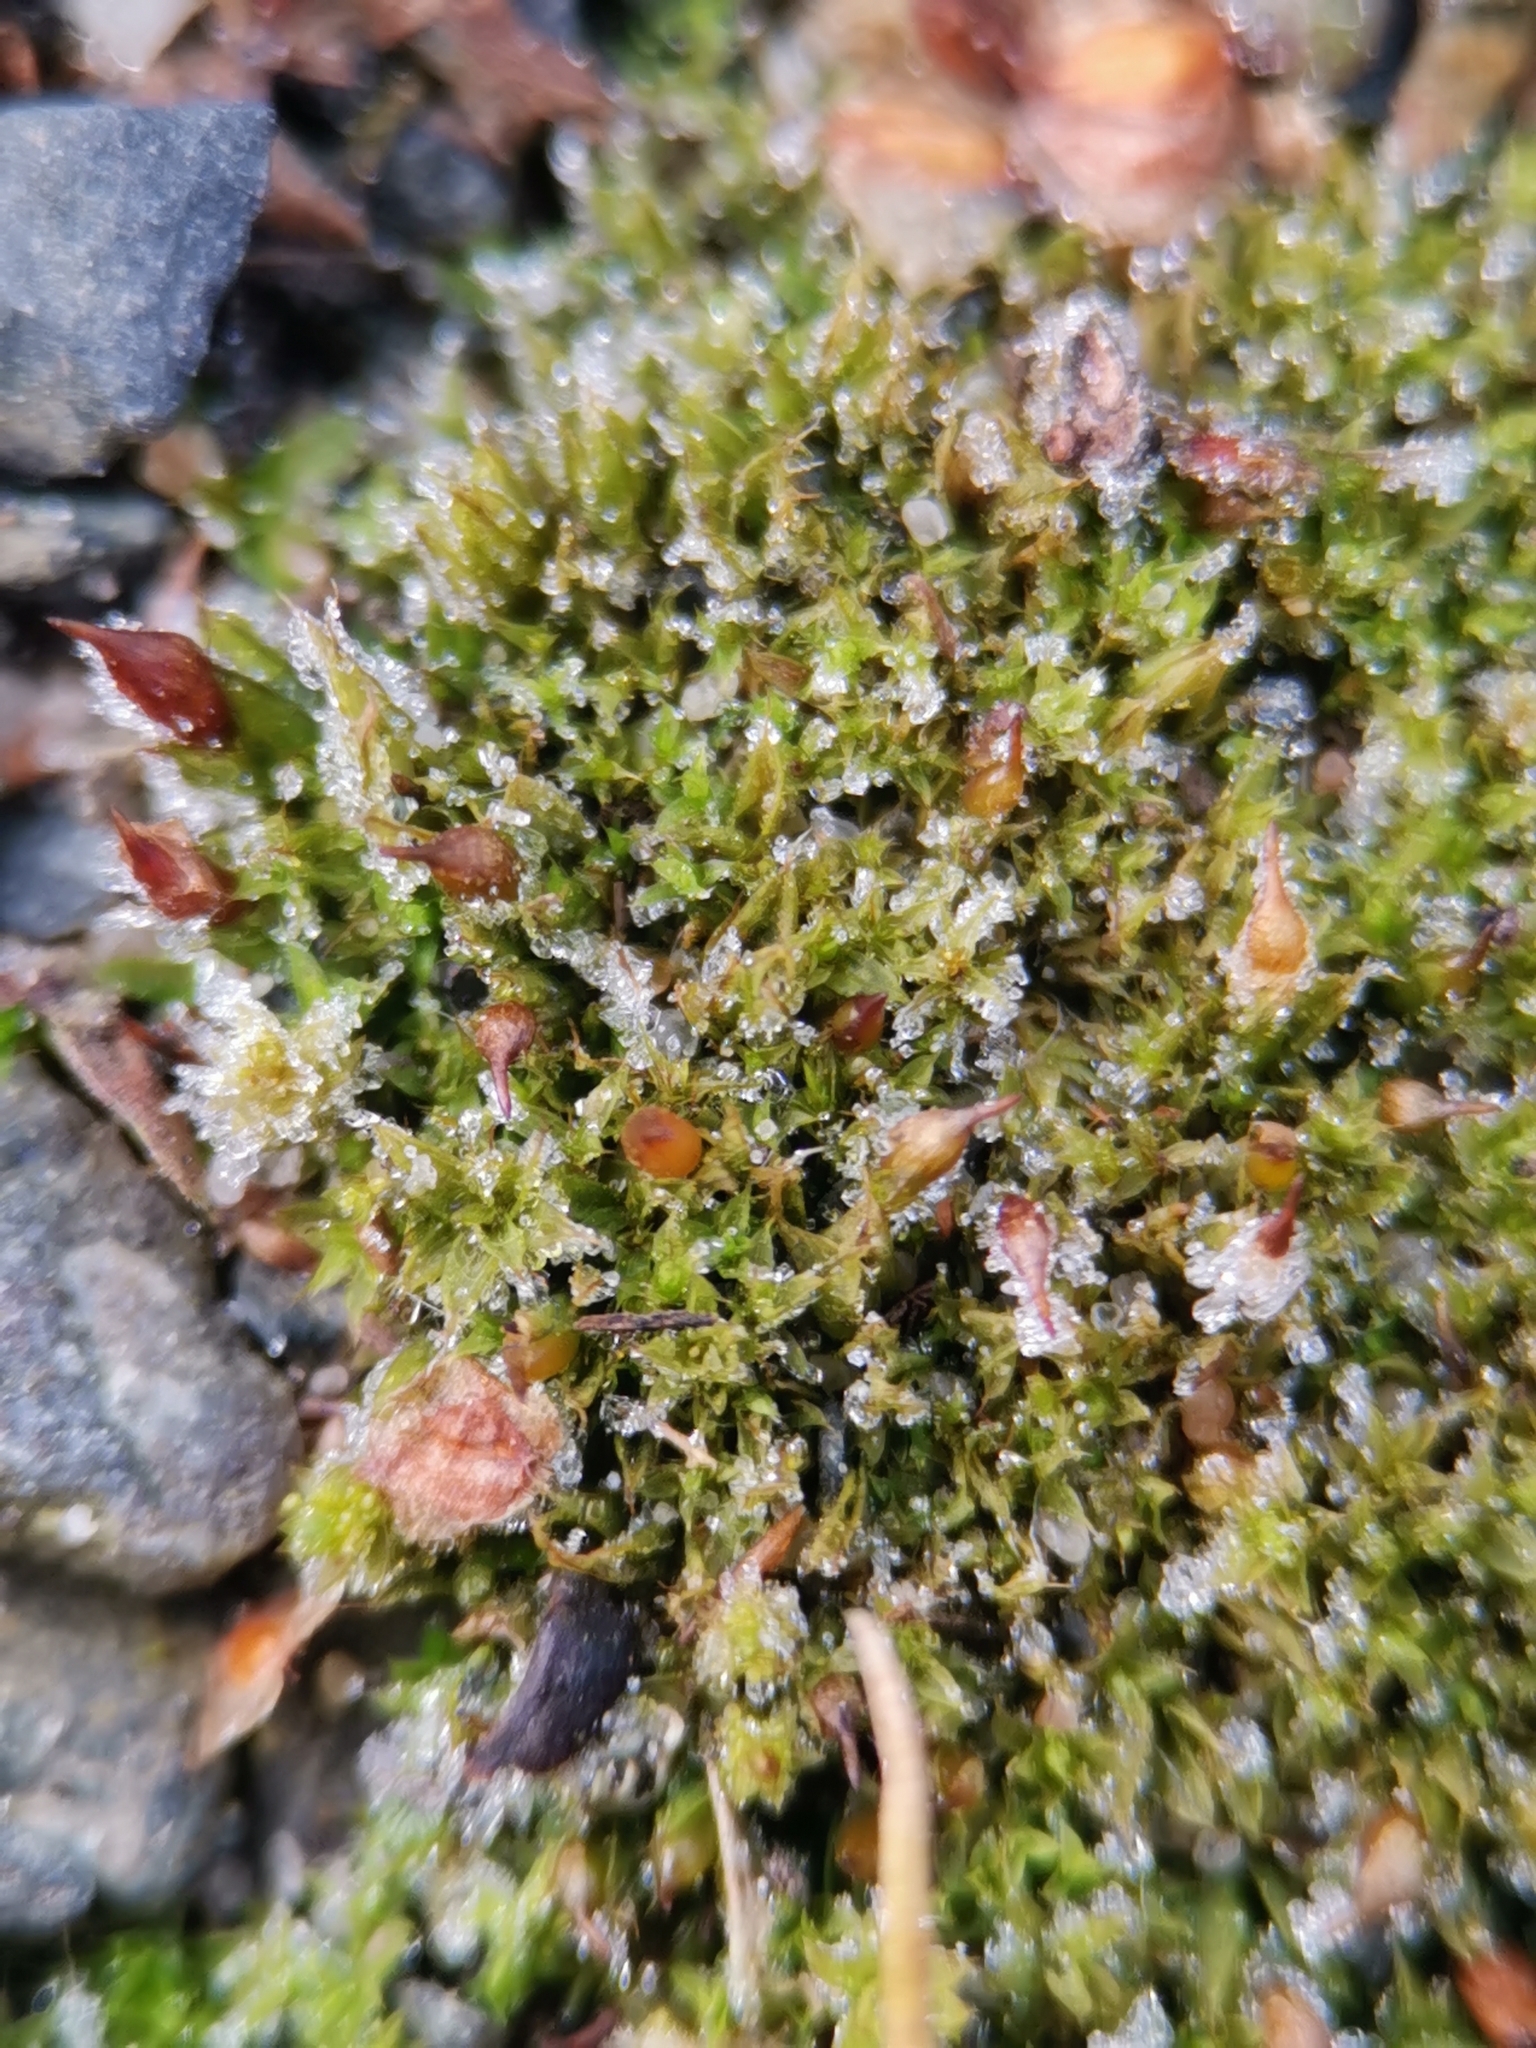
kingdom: Plantae
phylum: Bryophyta
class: Bryopsida
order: Pottiales
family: Pottiaceae
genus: Tortula
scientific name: Tortula protobryoides
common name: Tall pottia
